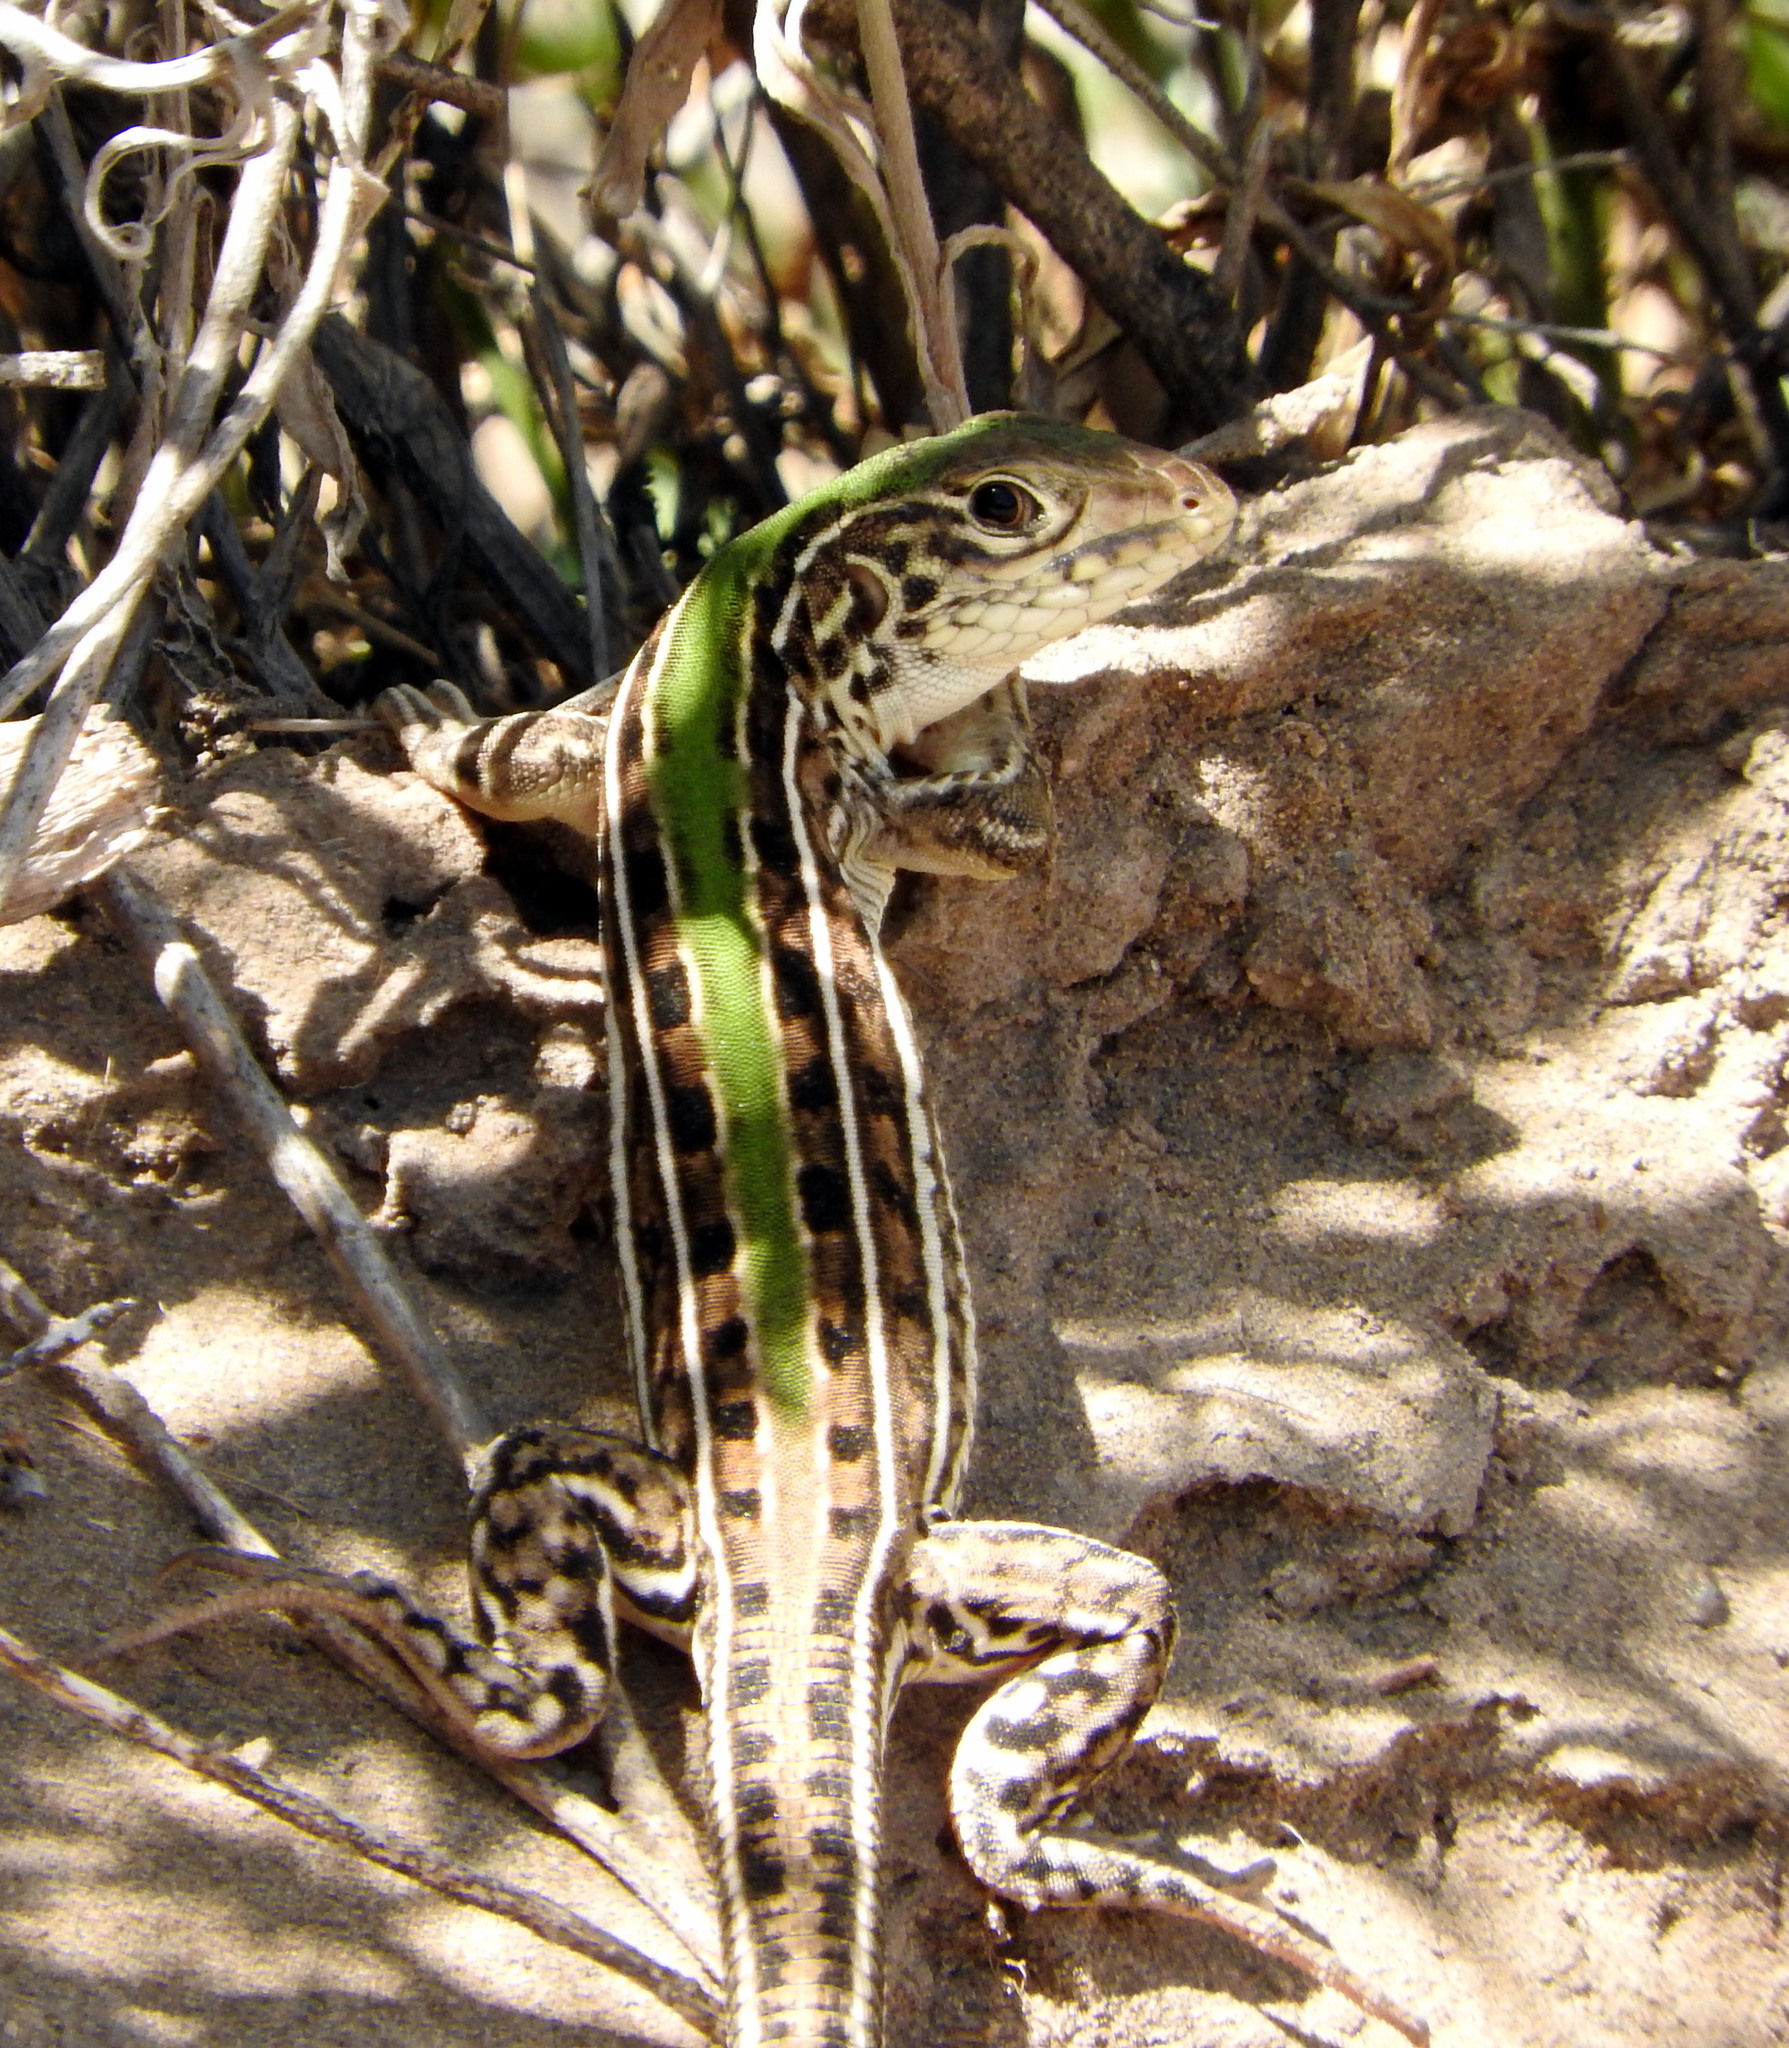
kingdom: Animalia
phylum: Chordata
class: Squamata
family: Teiidae
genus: Teius
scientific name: Teius oculatus
